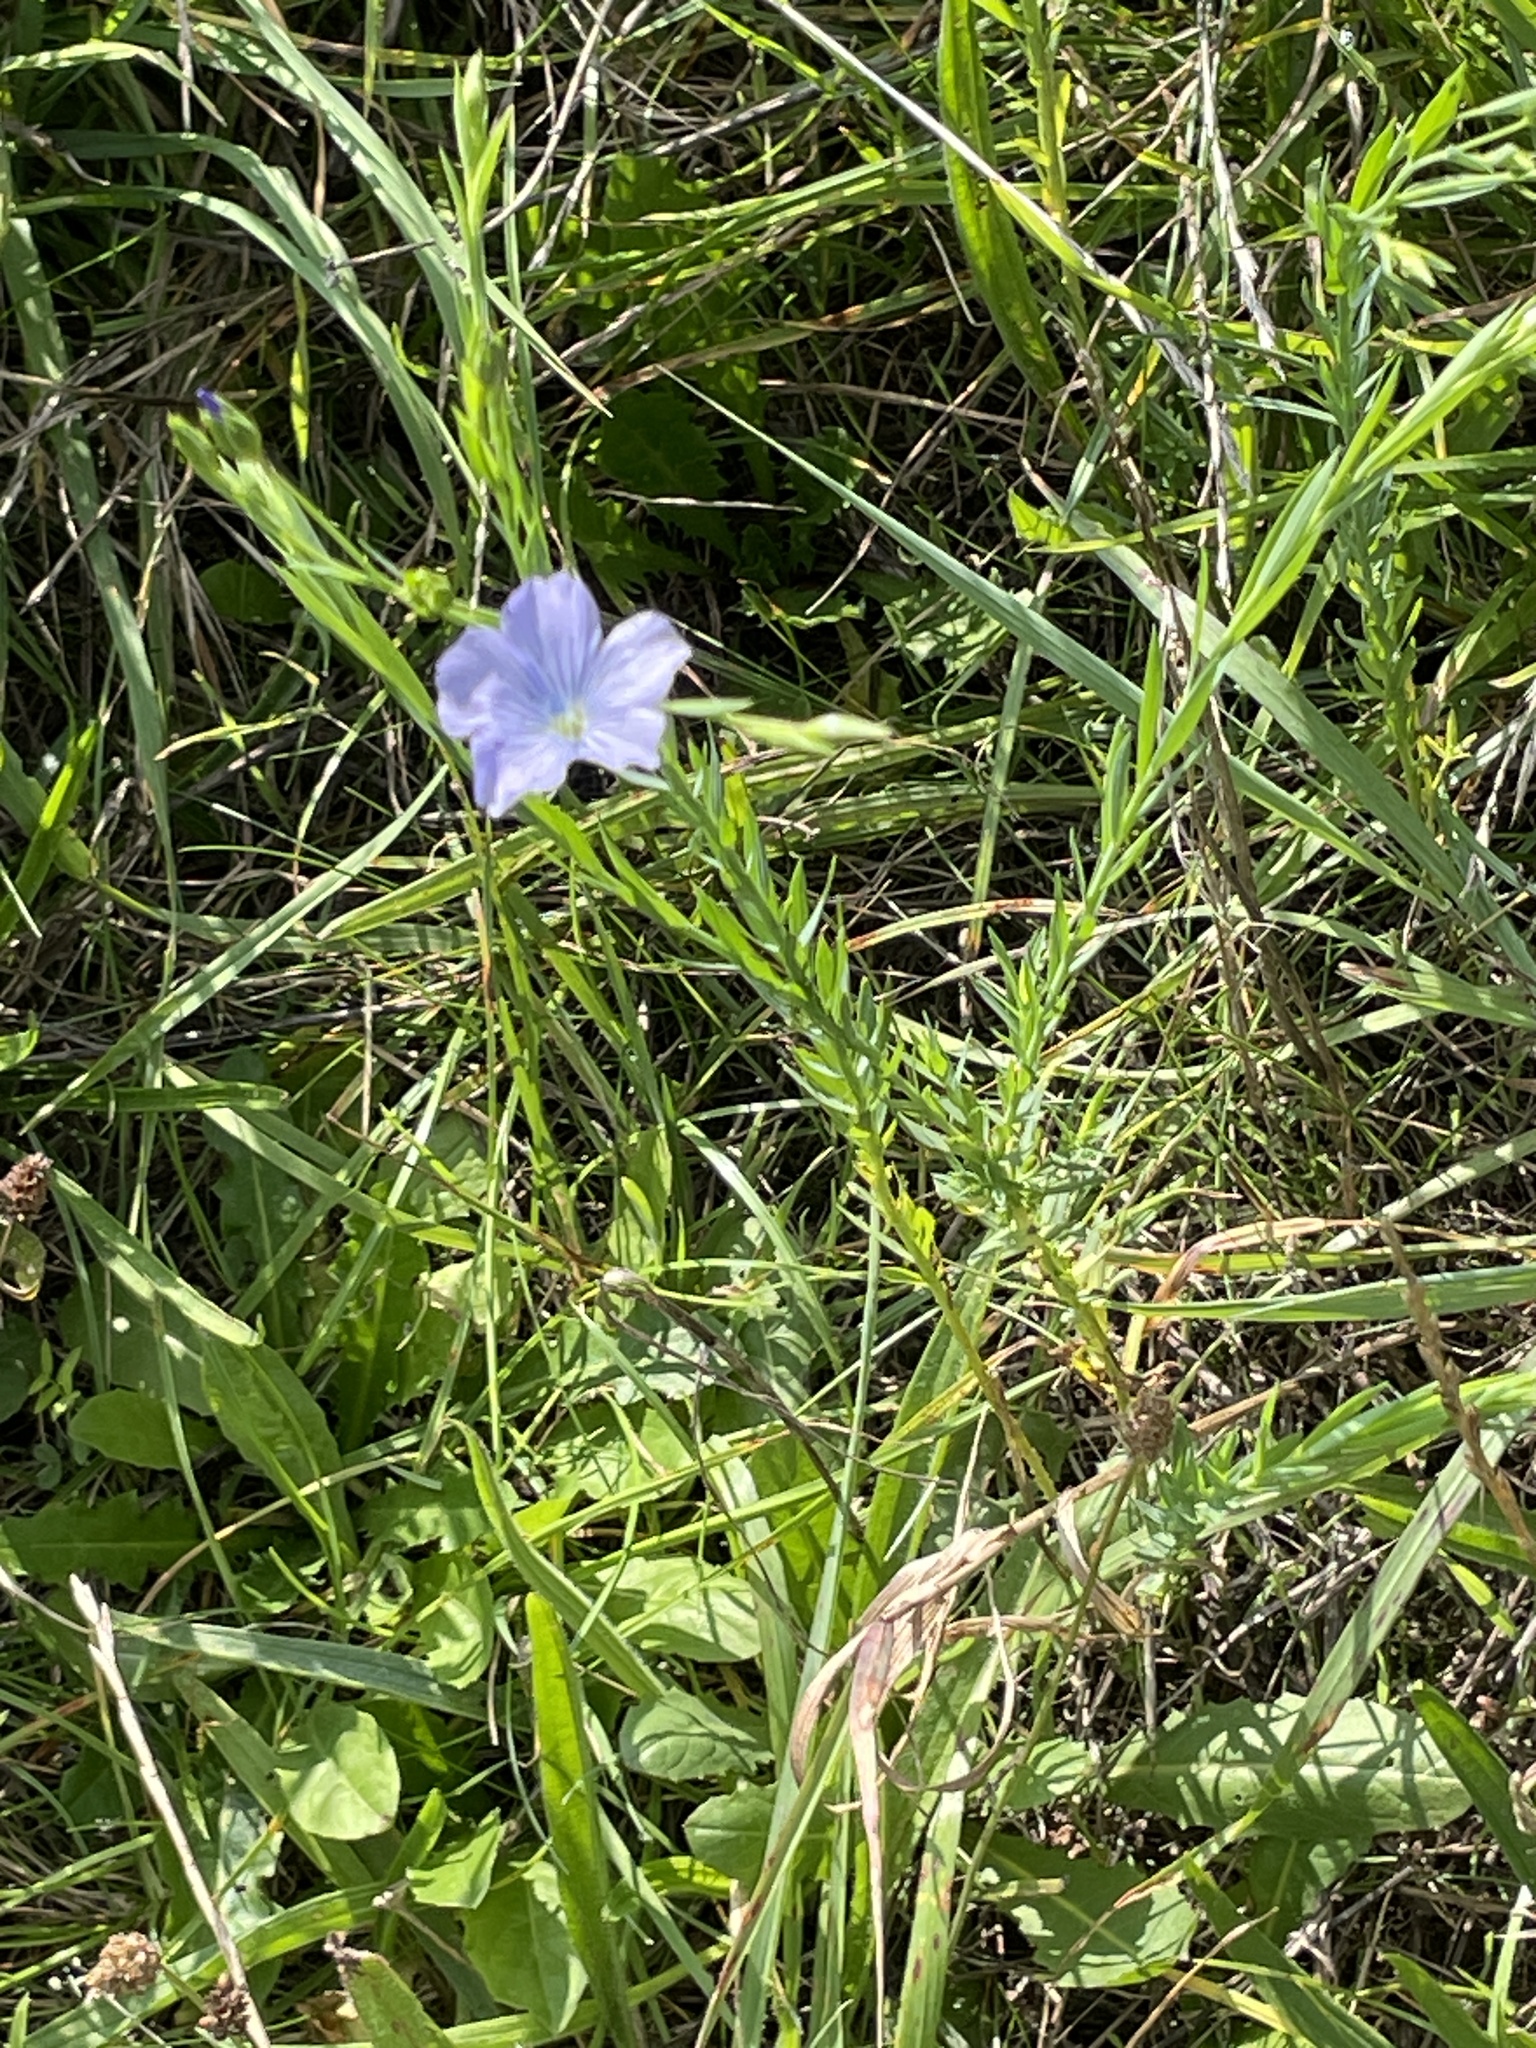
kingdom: Plantae
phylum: Tracheophyta
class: Magnoliopsida
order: Malpighiales
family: Linaceae
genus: Linum
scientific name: Linum usitatissimum
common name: Flax
